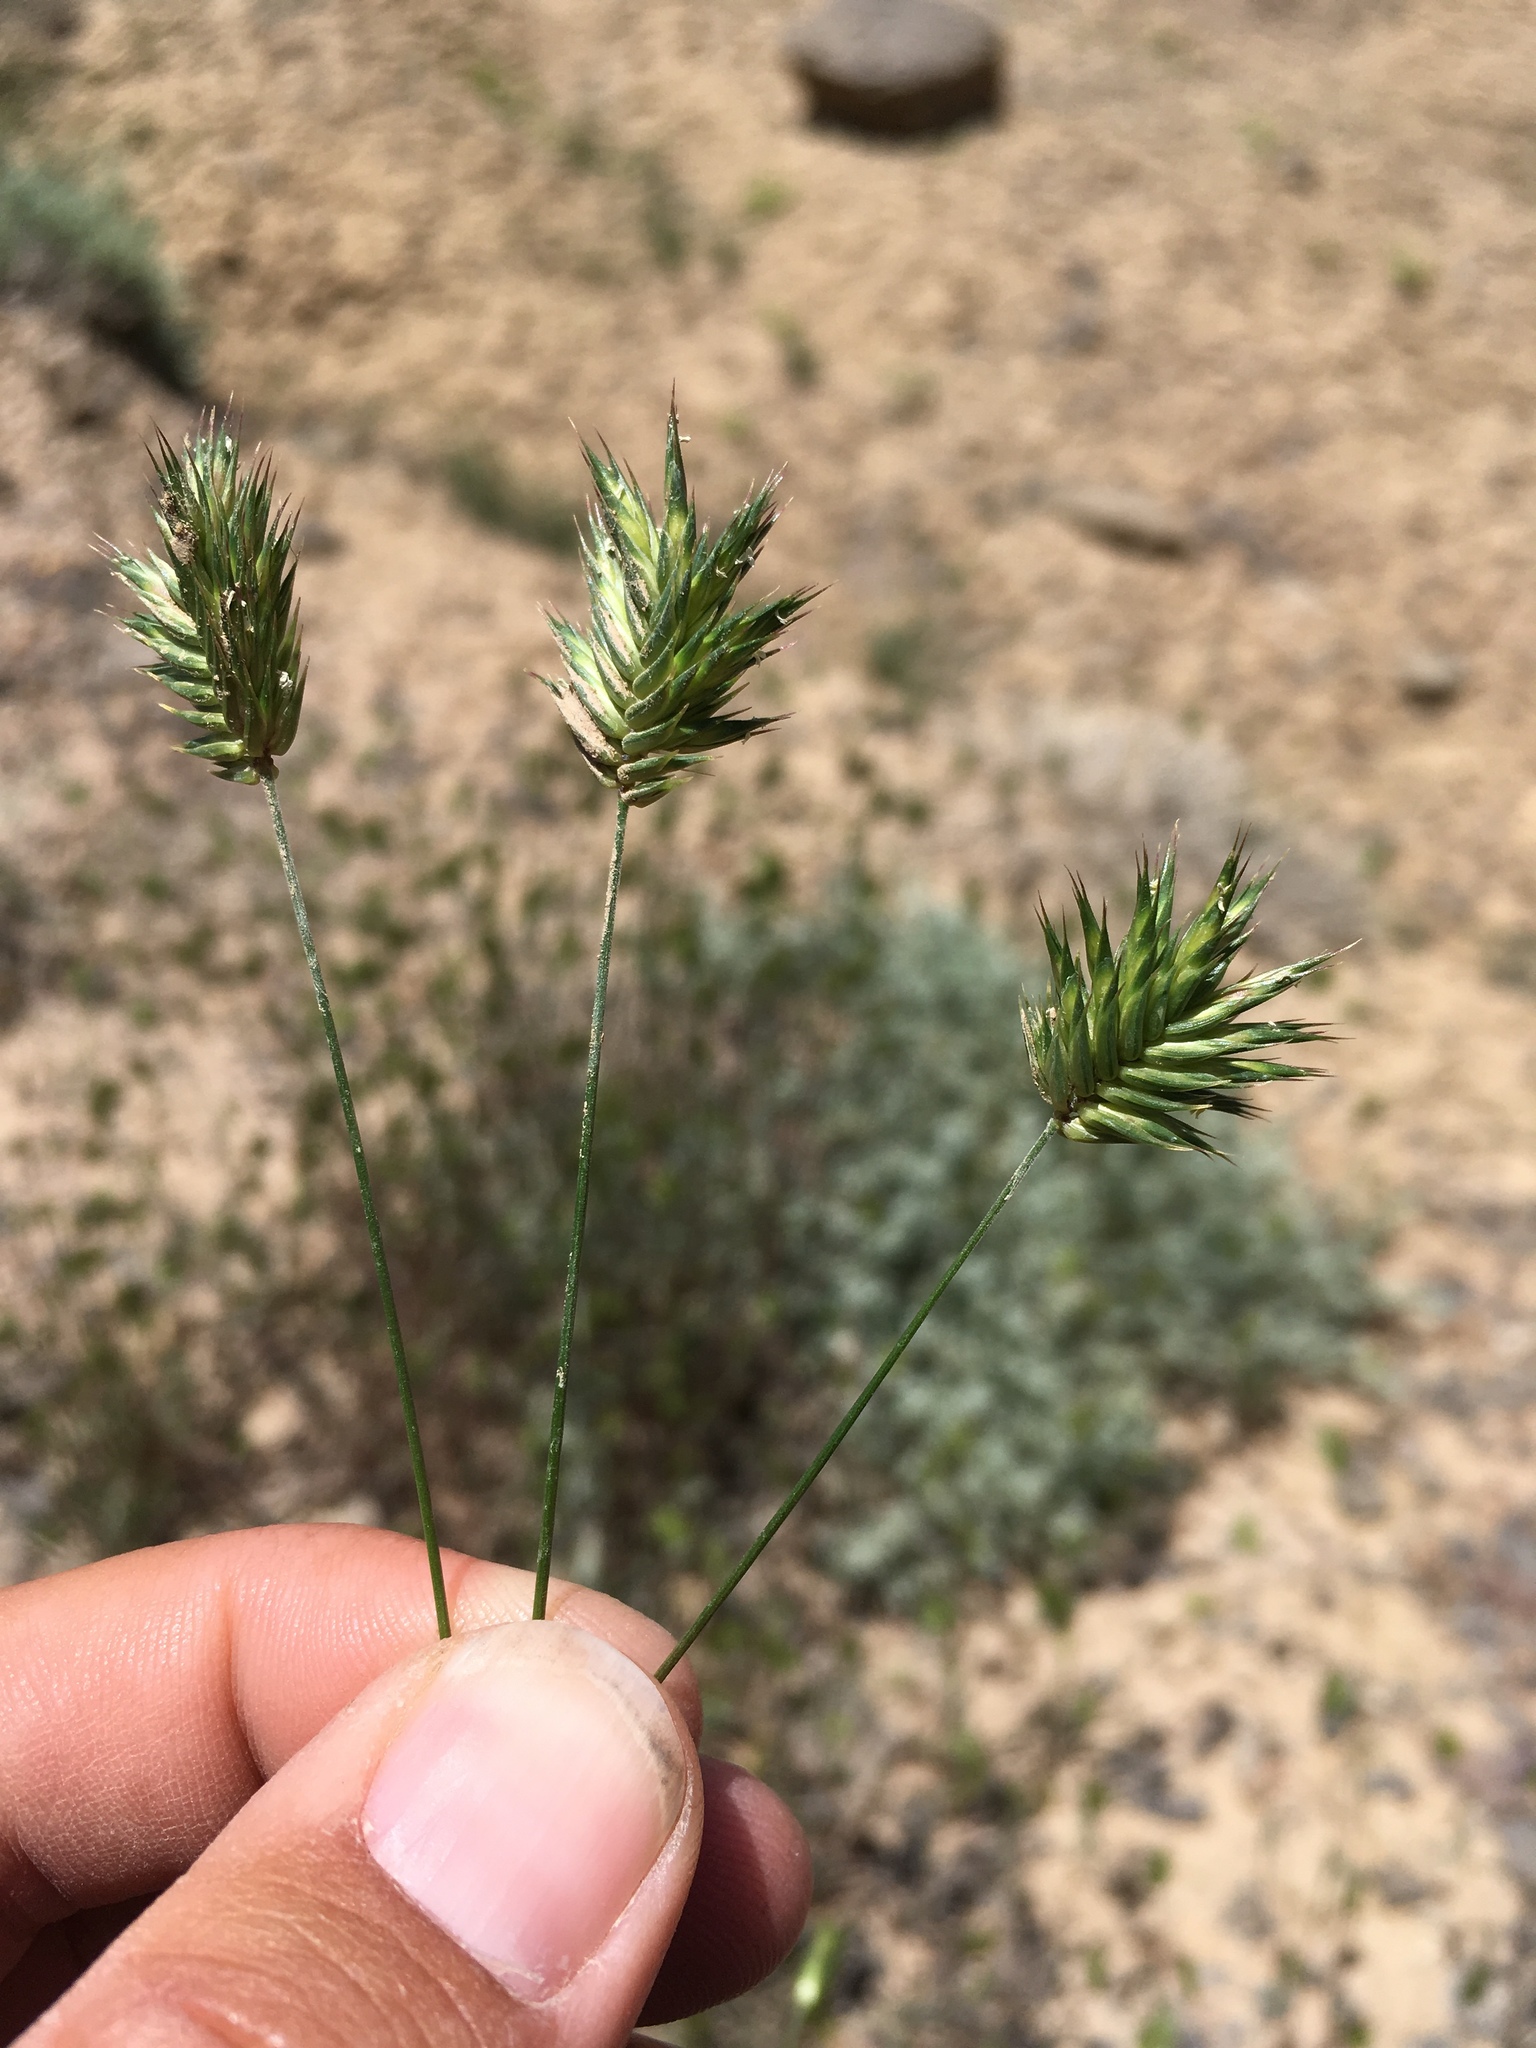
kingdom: Plantae
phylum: Tracheophyta
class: Liliopsida
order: Poales
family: Poaceae
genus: Eremopyrum
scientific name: Eremopyrum triticeum
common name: Annual wheatgrass
